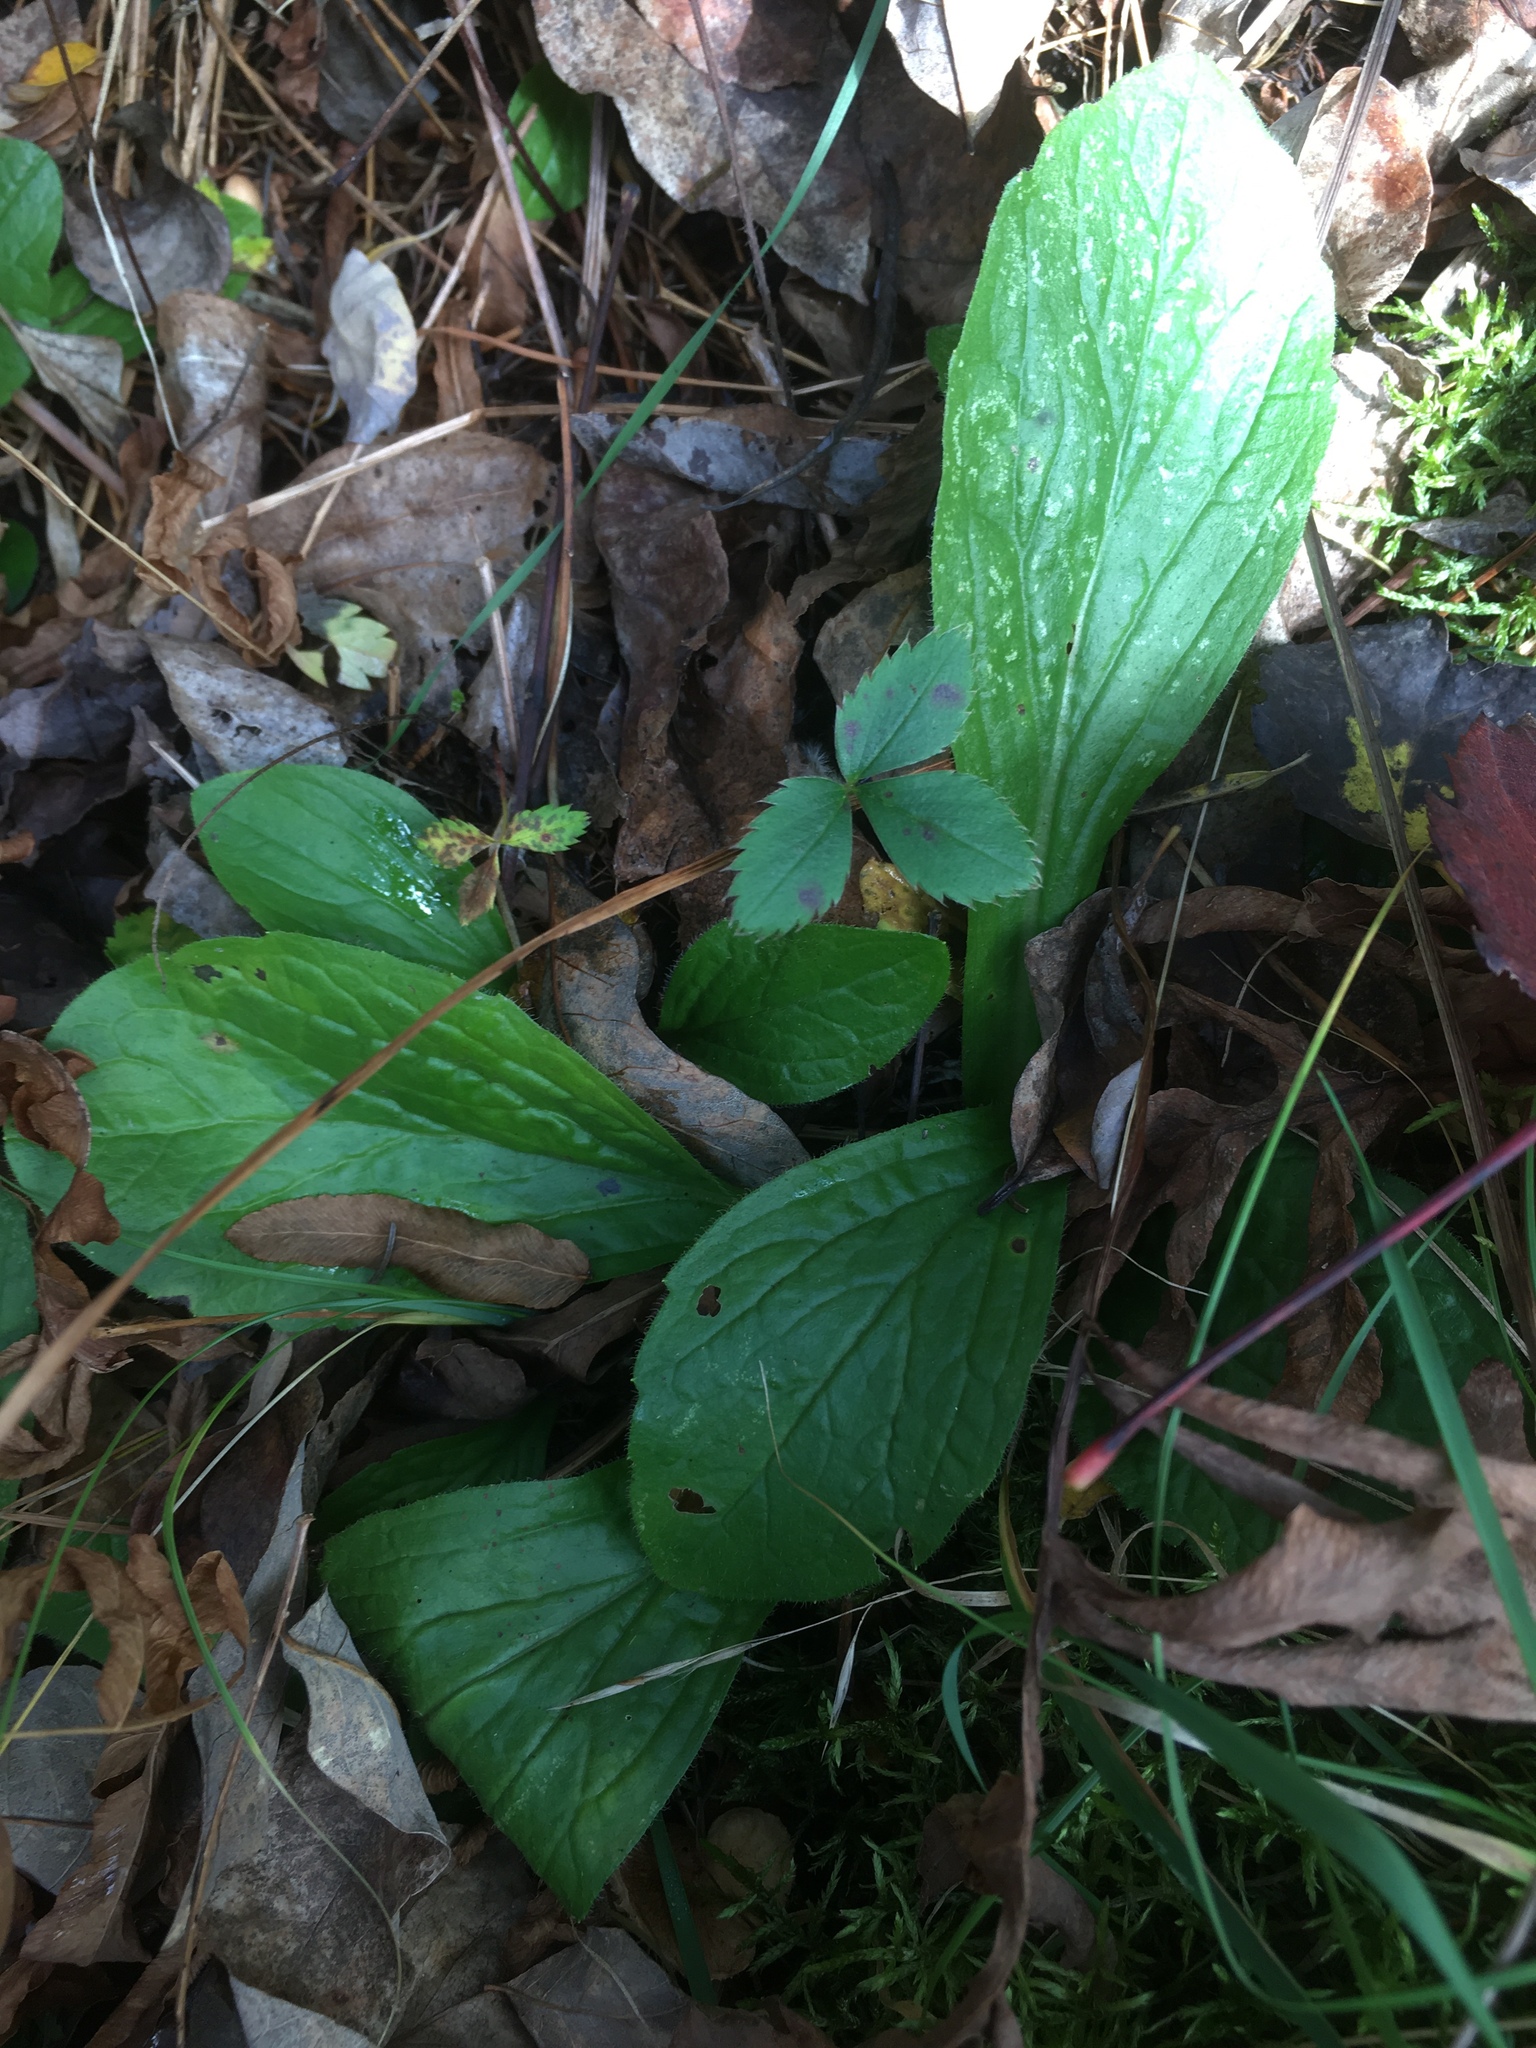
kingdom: Plantae
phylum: Tracheophyta
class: Magnoliopsida
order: Asterales
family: Asteraceae
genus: Erigeron
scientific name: Erigeron pulchellus
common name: Hairy fleabane
